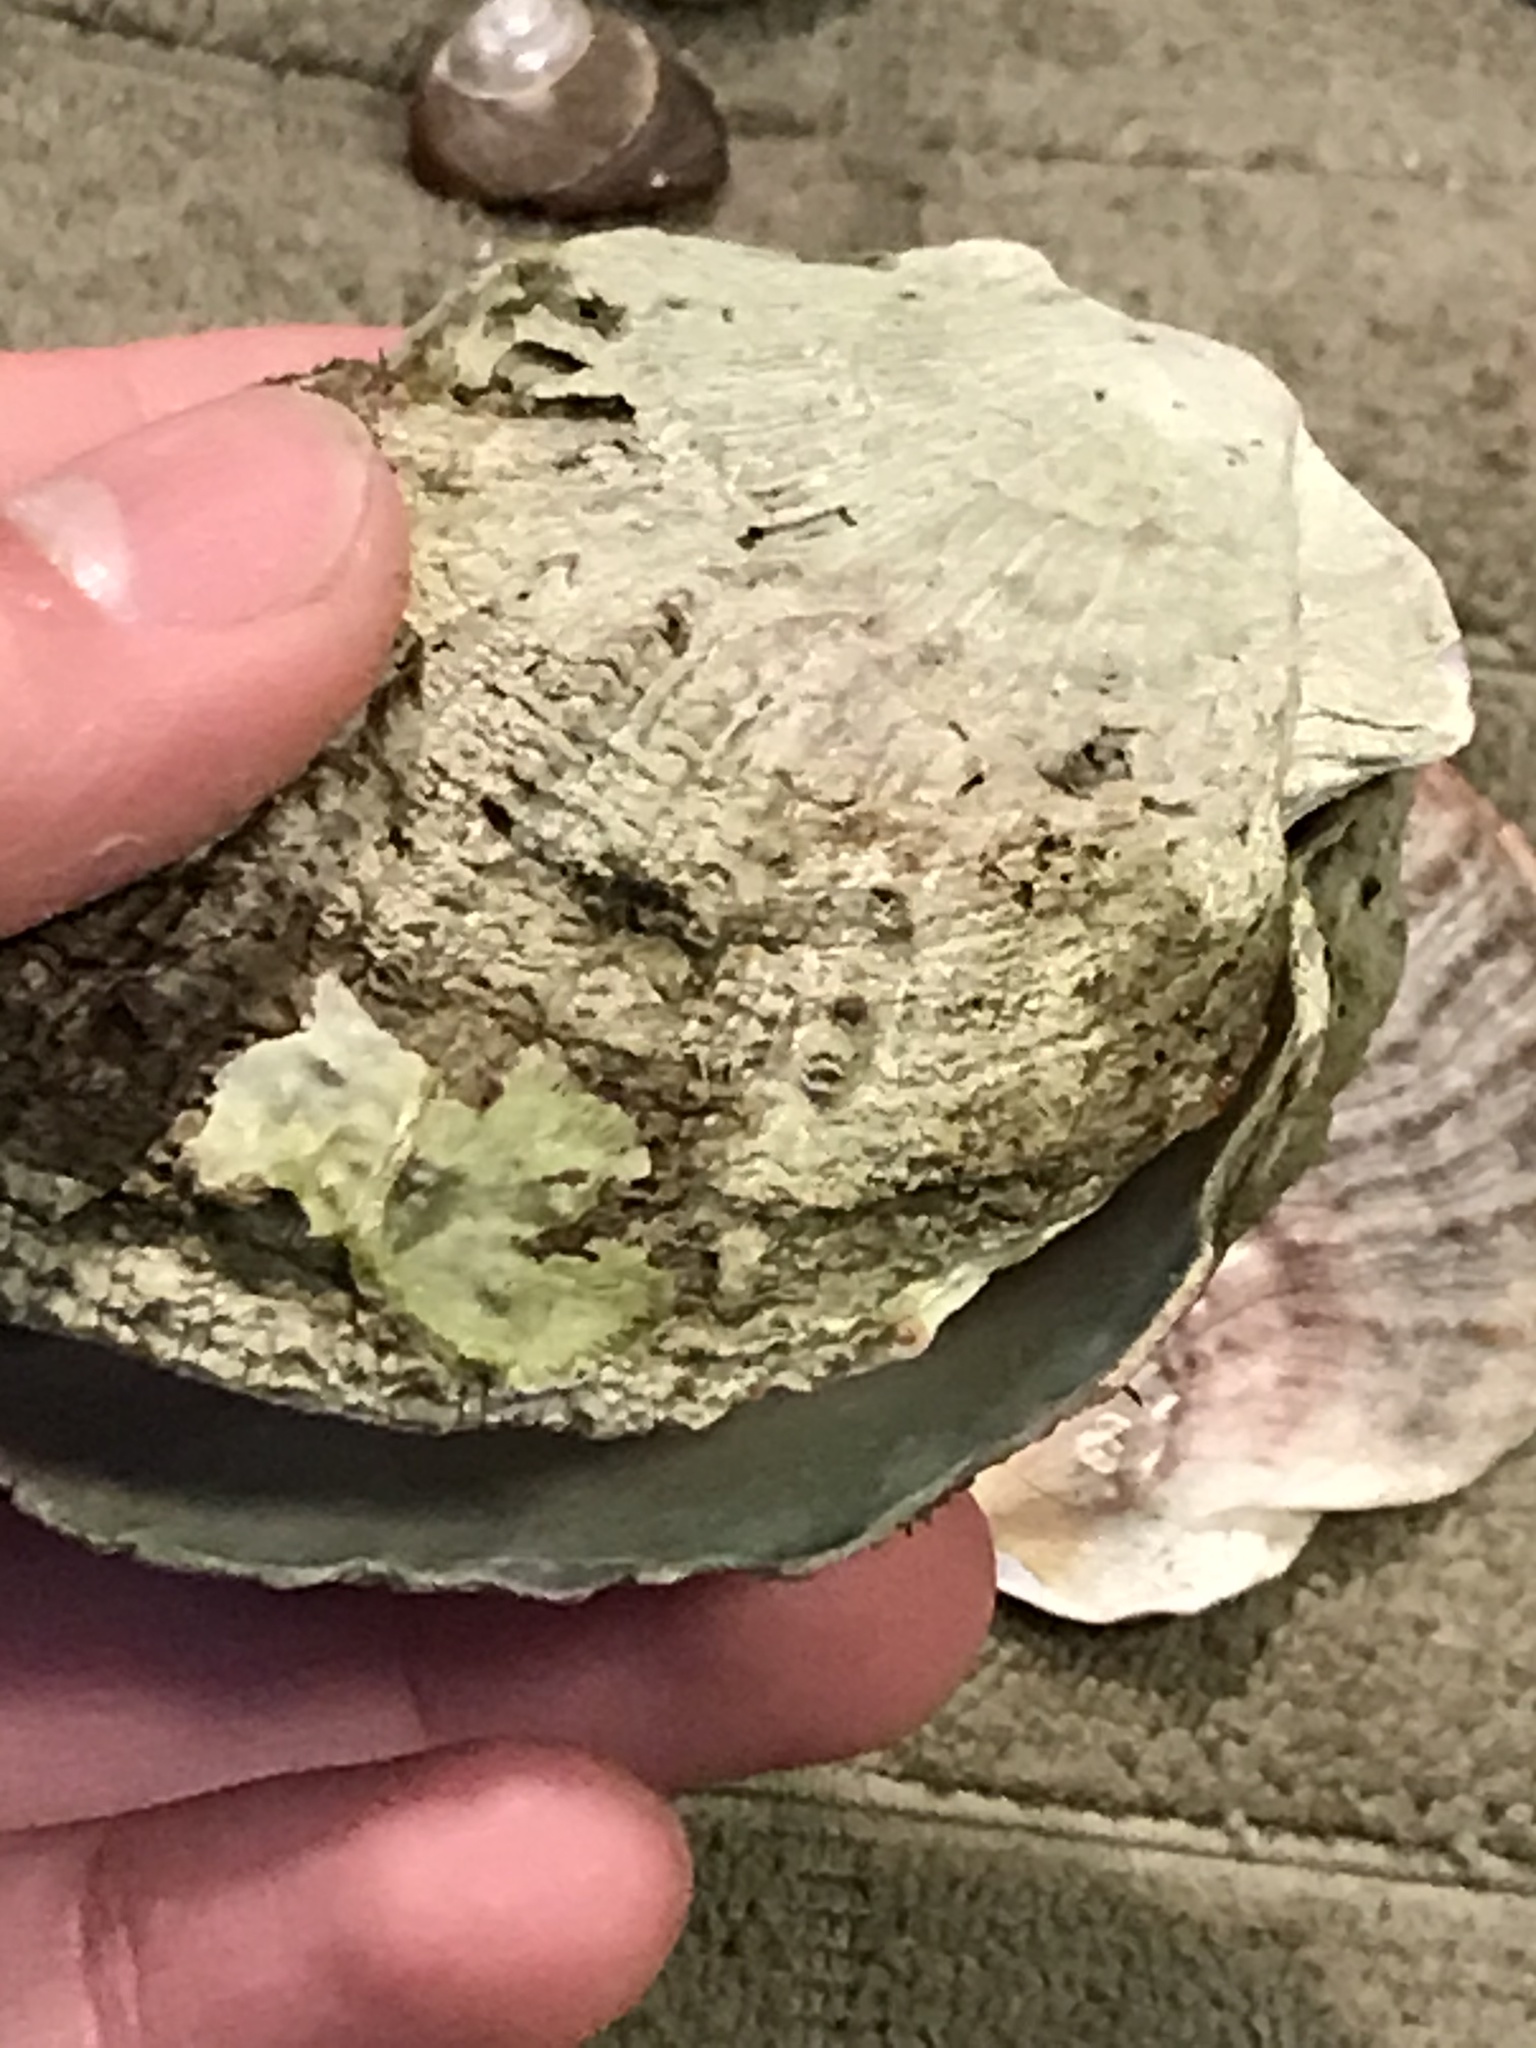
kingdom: Animalia
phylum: Mollusca
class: Bivalvia
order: Pectinida
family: Pectinidae
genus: Crassadoma
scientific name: Crassadoma gigantea
